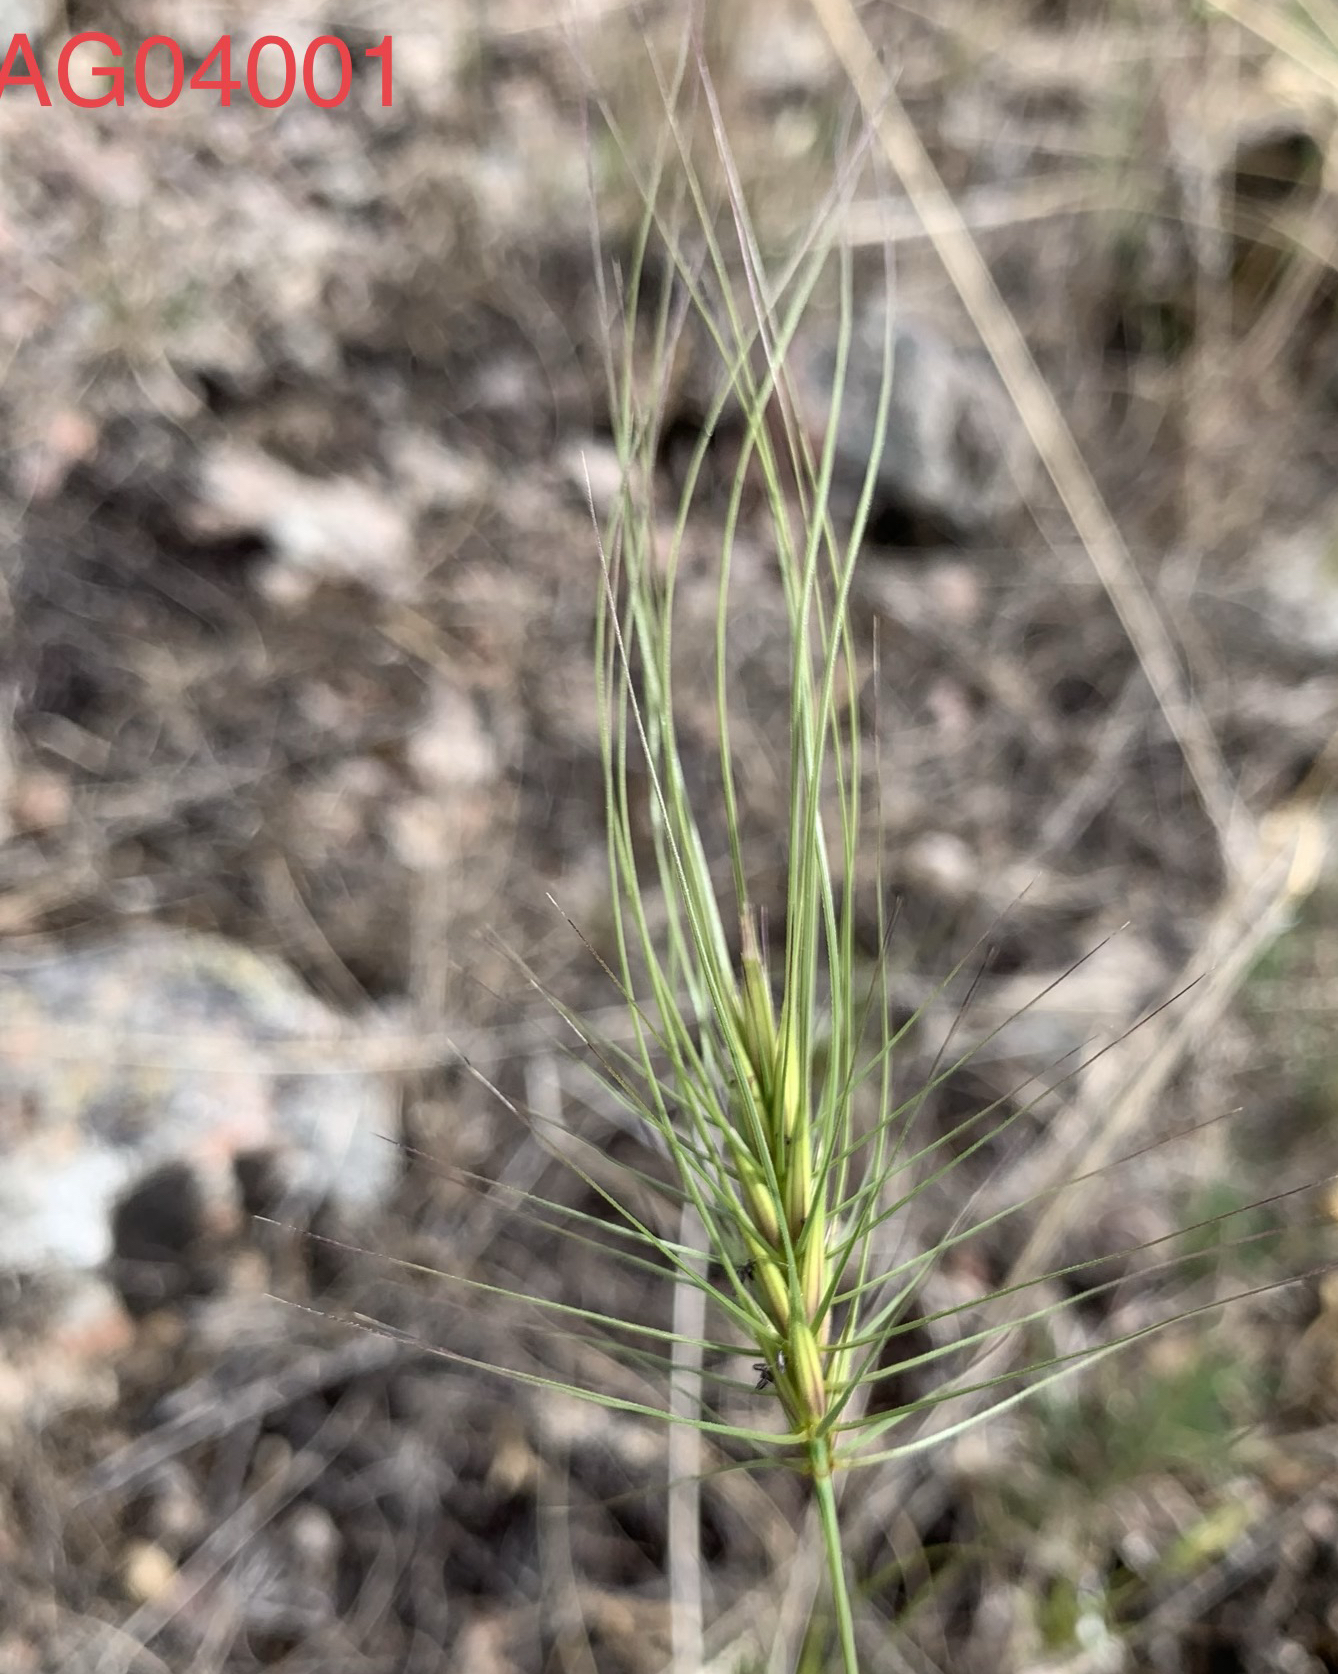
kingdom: Plantae
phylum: Tracheophyta
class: Liliopsida
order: Poales
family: Poaceae
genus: Taeniatherum
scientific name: Taeniatherum caput-medusae
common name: Medusahead
